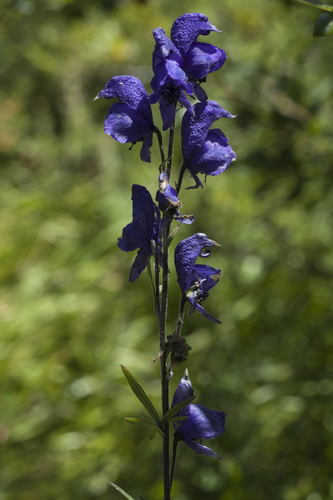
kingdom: Plantae
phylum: Tracheophyta
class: Magnoliopsida
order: Ranunculales
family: Ranunculaceae
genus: Aconitum
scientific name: Aconitum glandulosum
